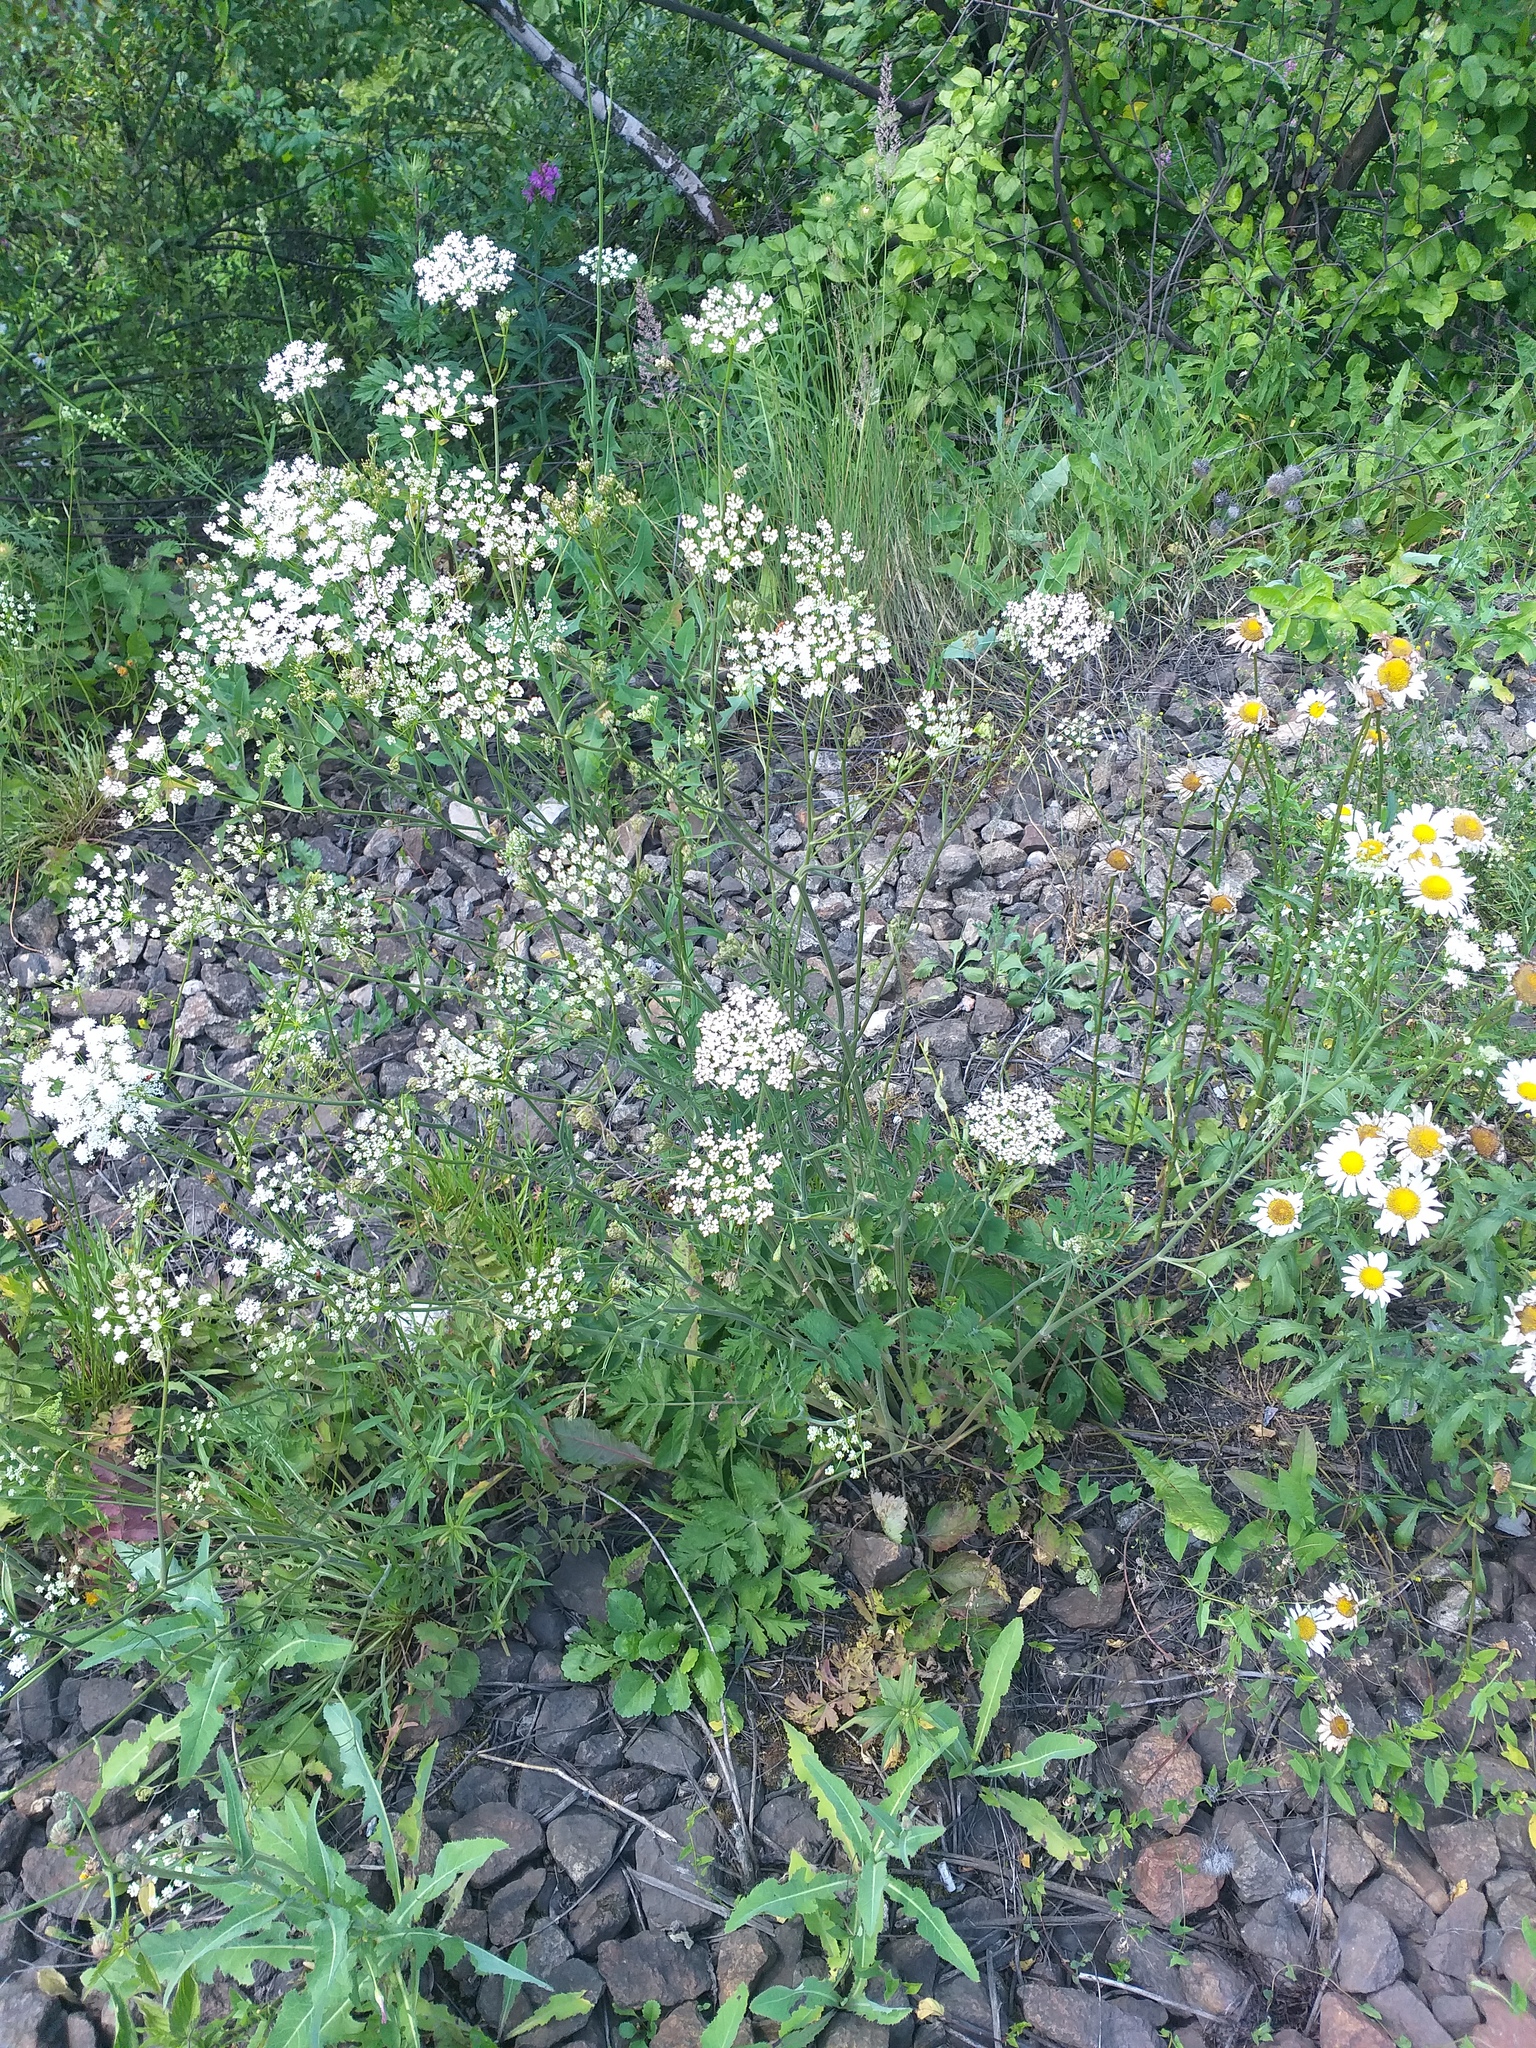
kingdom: Plantae
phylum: Tracheophyta
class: Magnoliopsida
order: Apiales
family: Apiaceae
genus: Pimpinella
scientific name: Pimpinella saxifraga
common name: Burnet-saxifrage
